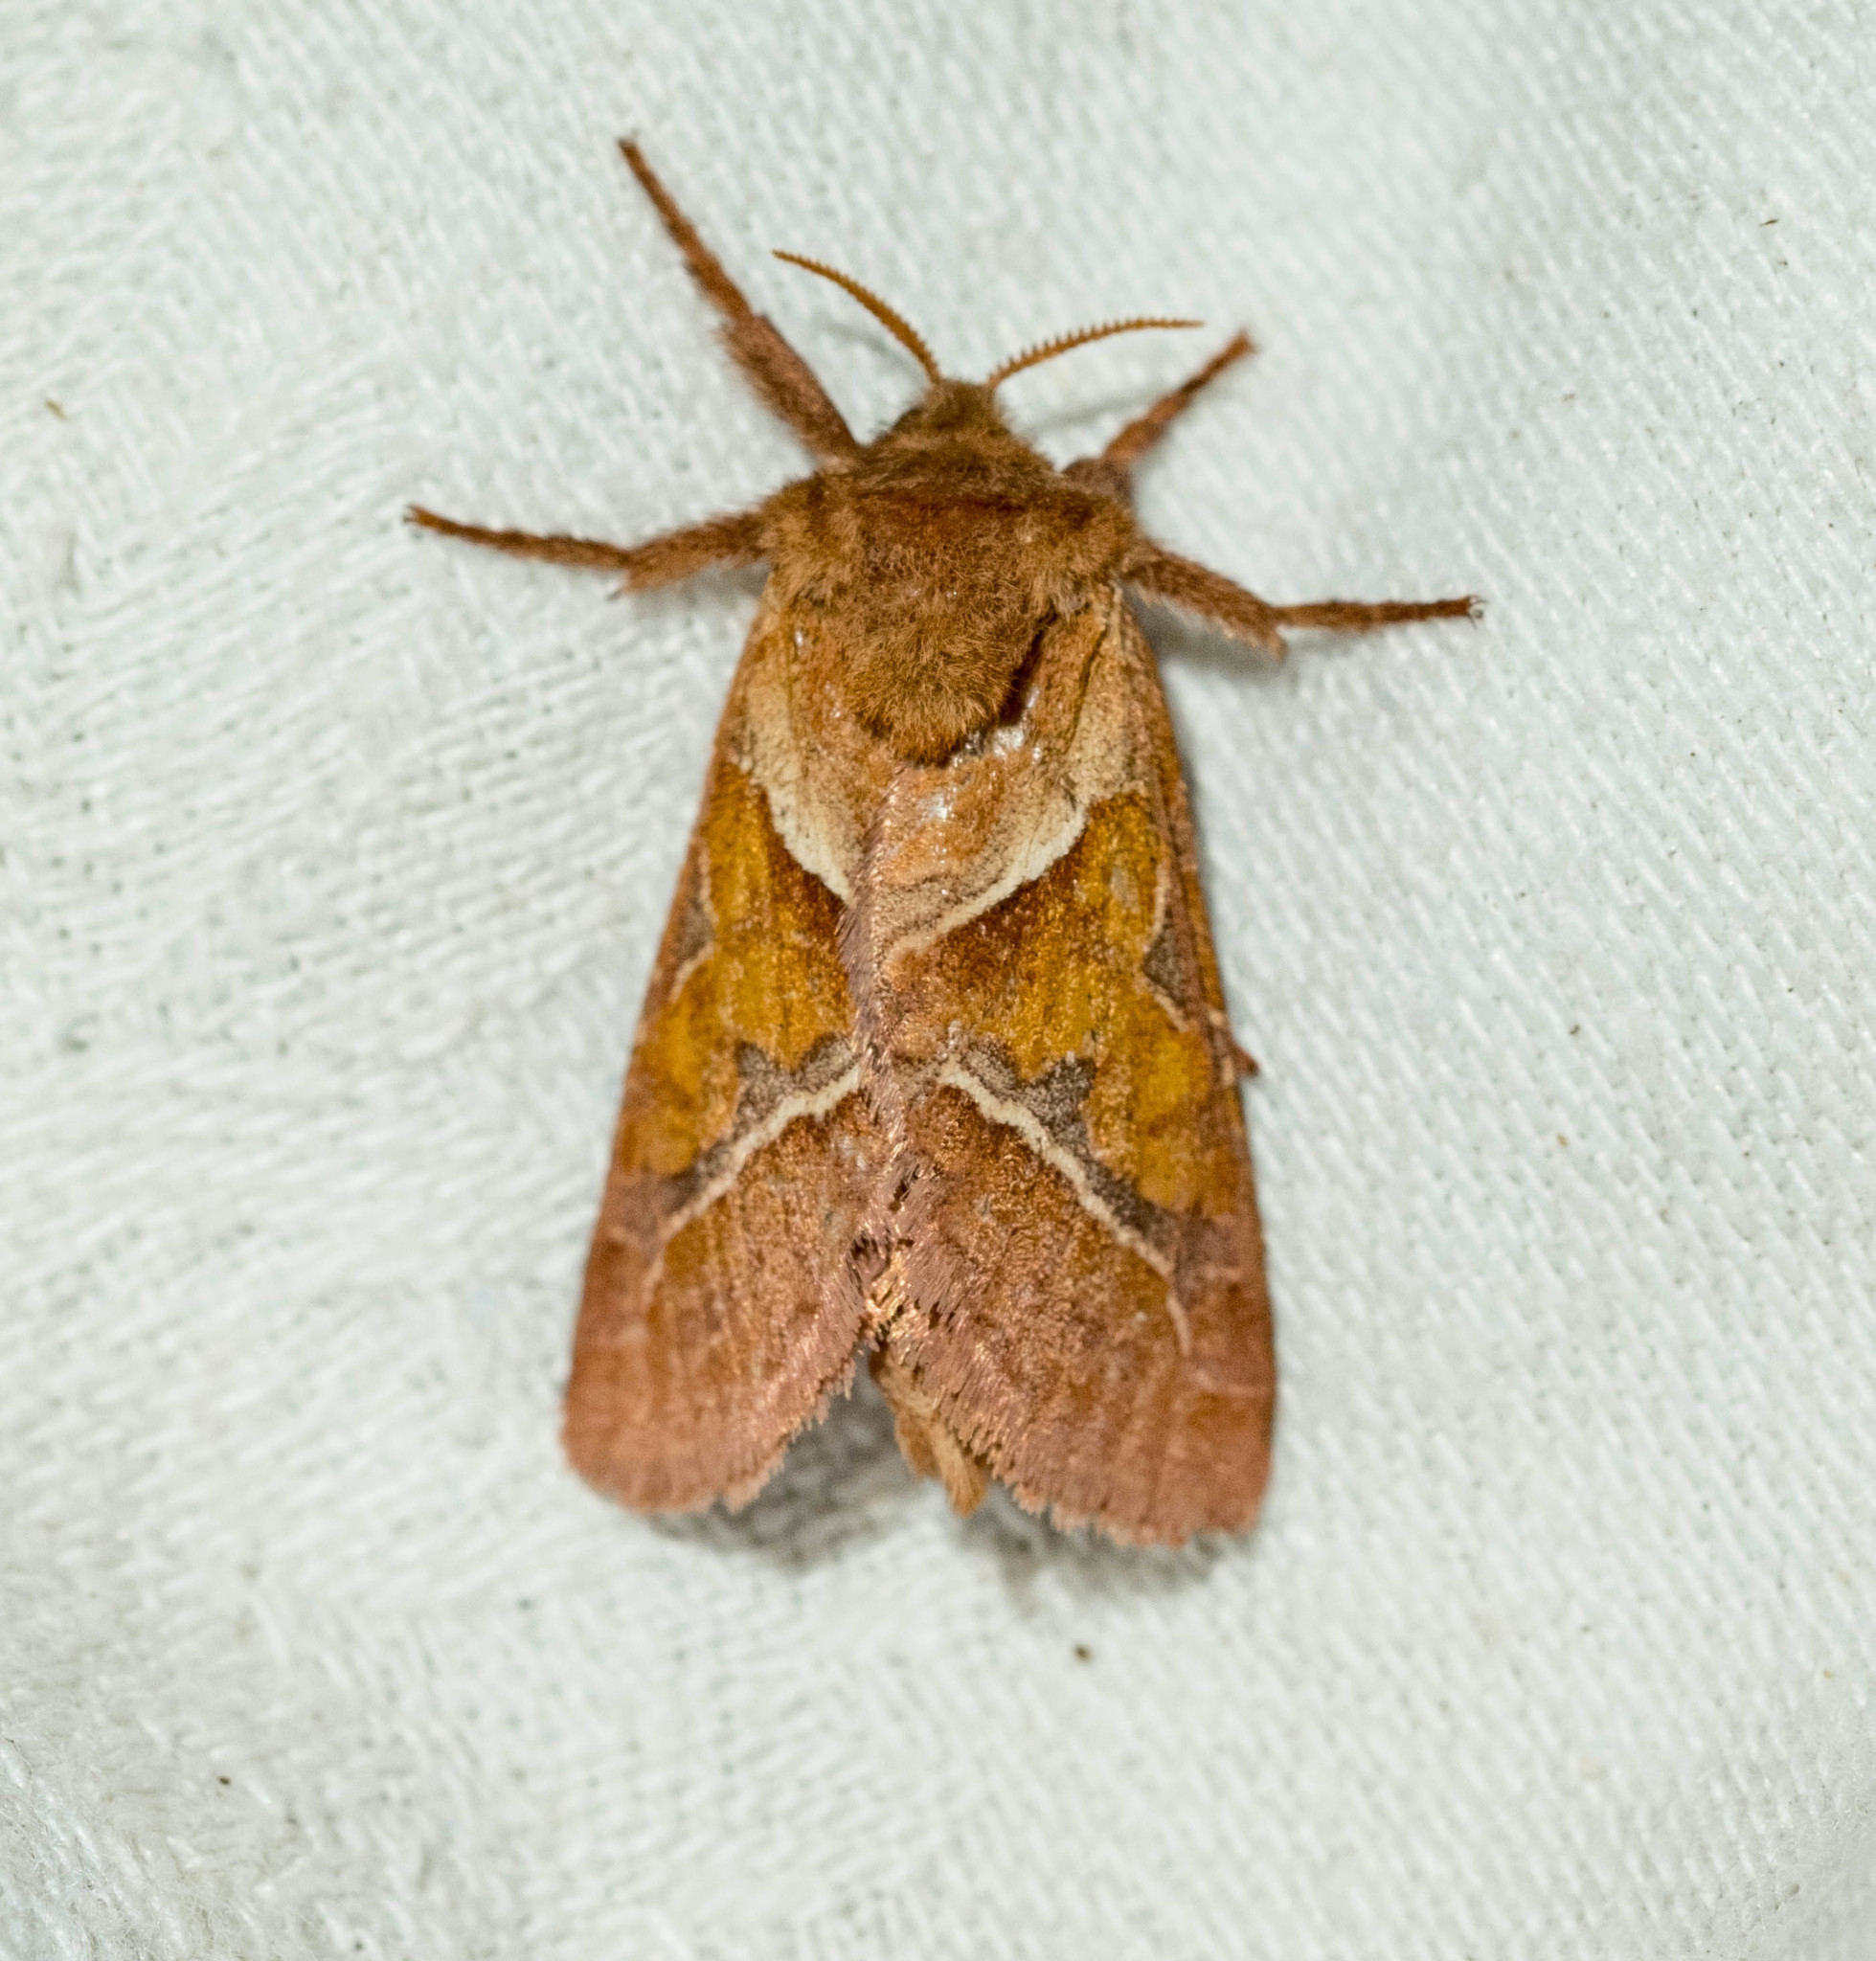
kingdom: Animalia
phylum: Arthropoda
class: Insecta
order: Lepidoptera
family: Hepialidae
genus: Triodia
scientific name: Triodia sylvina
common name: Orange swift
